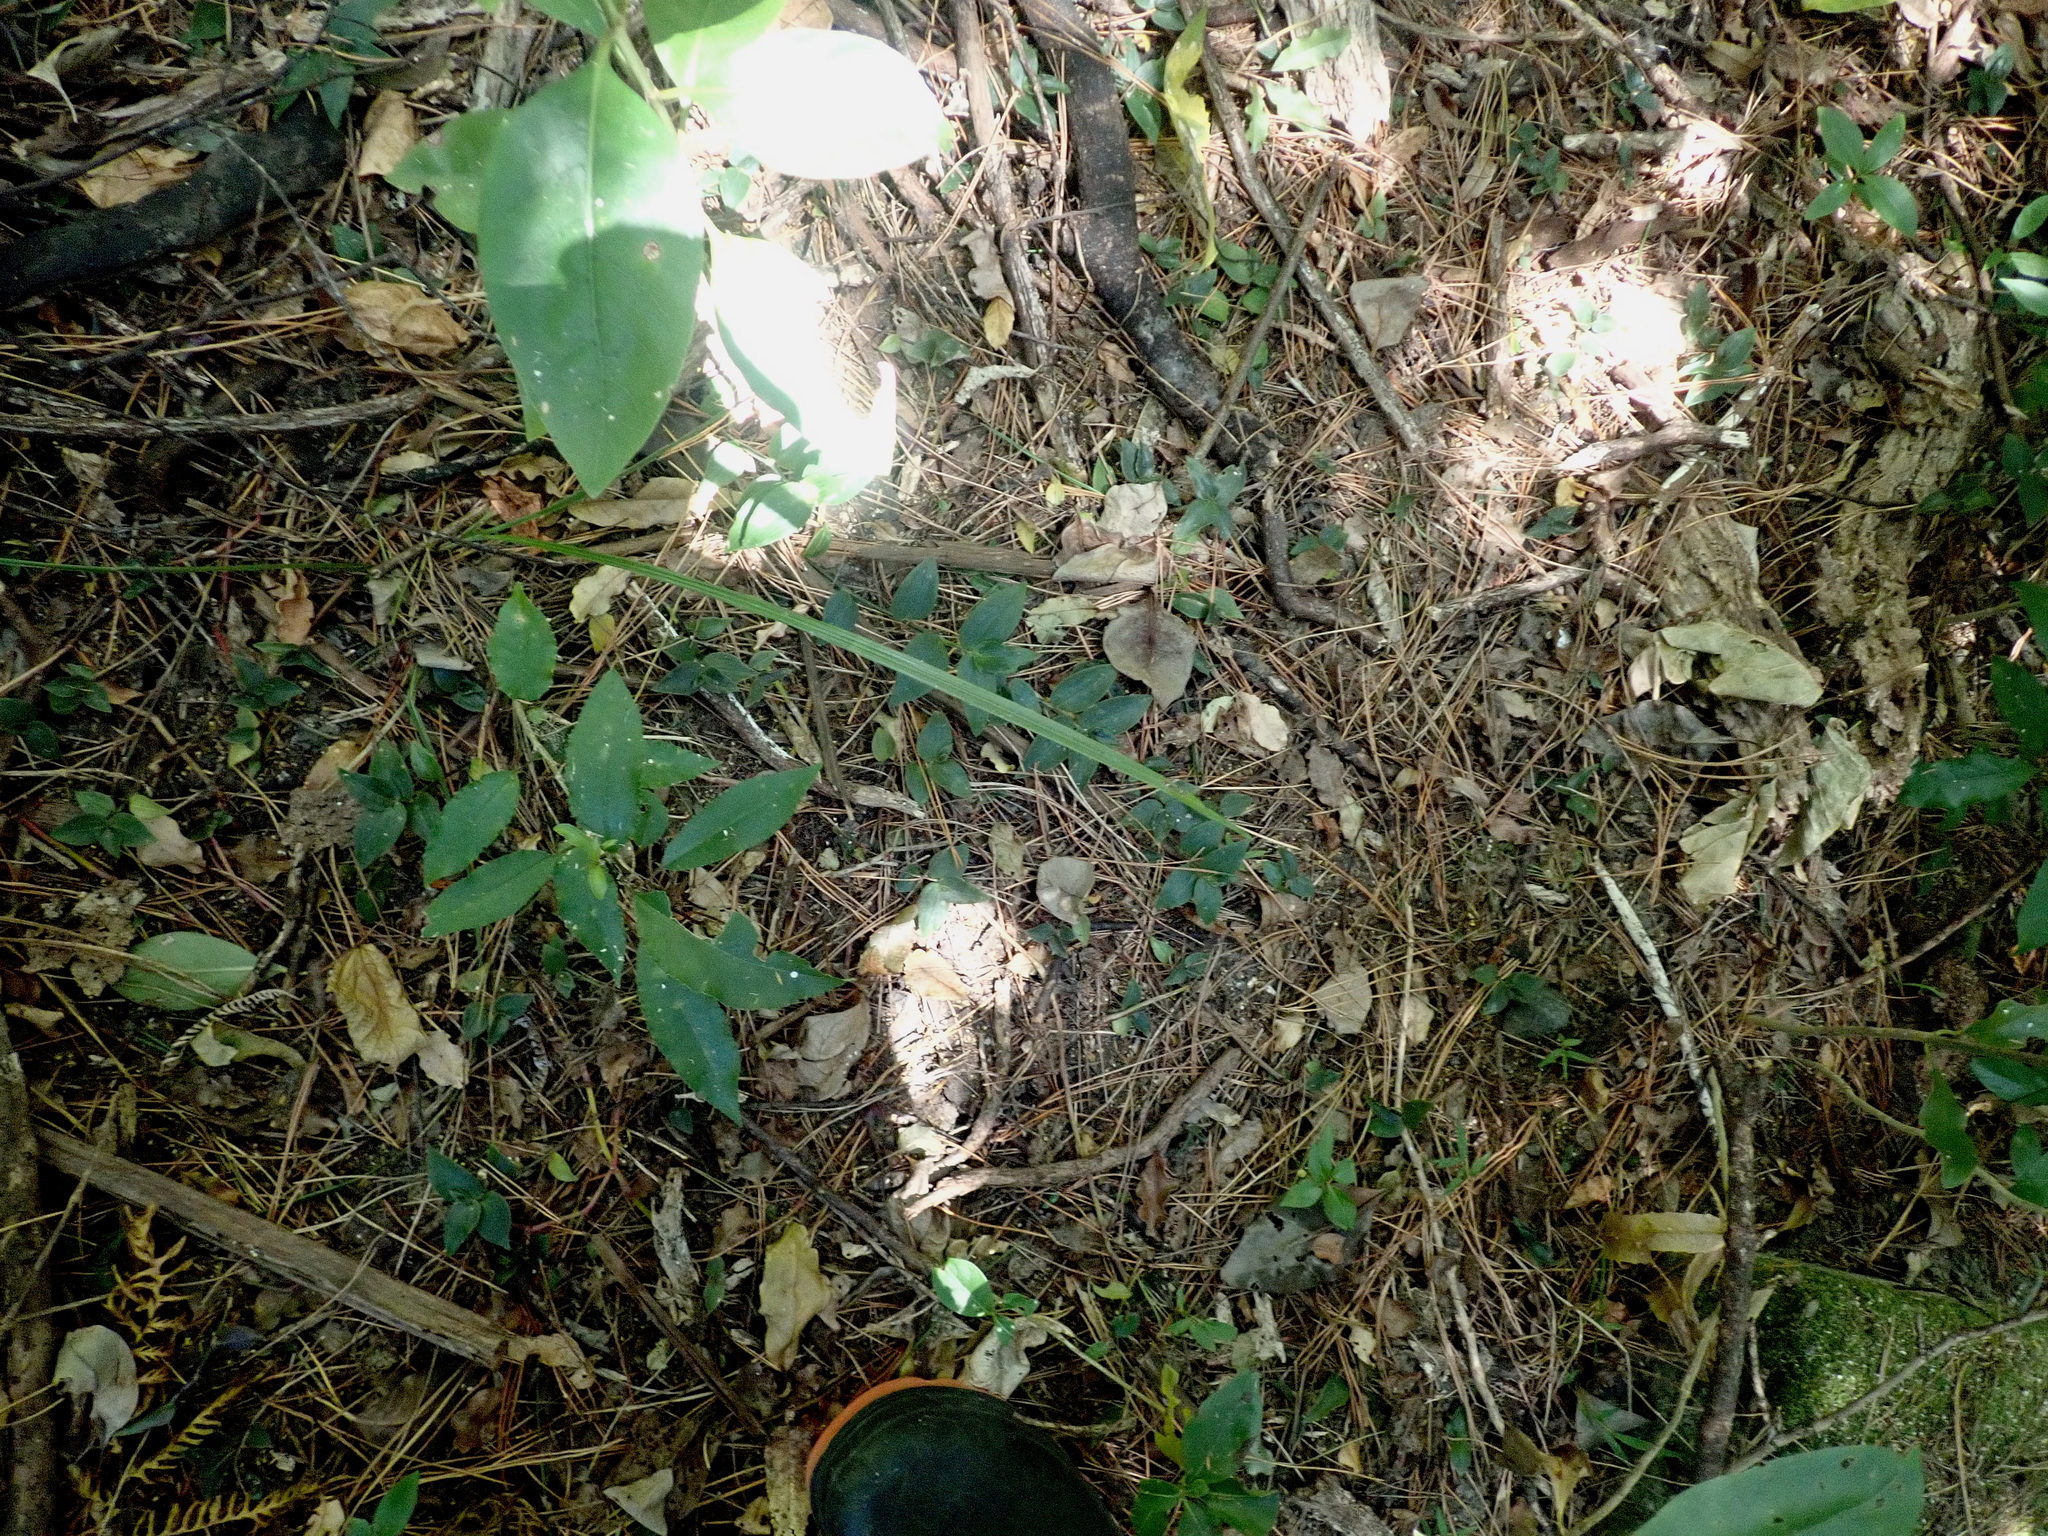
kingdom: Plantae
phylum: Tracheophyta
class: Liliopsida
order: Commelinales
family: Commelinaceae
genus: Tradescantia
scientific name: Tradescantia fluminensis
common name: Wandering-jew
